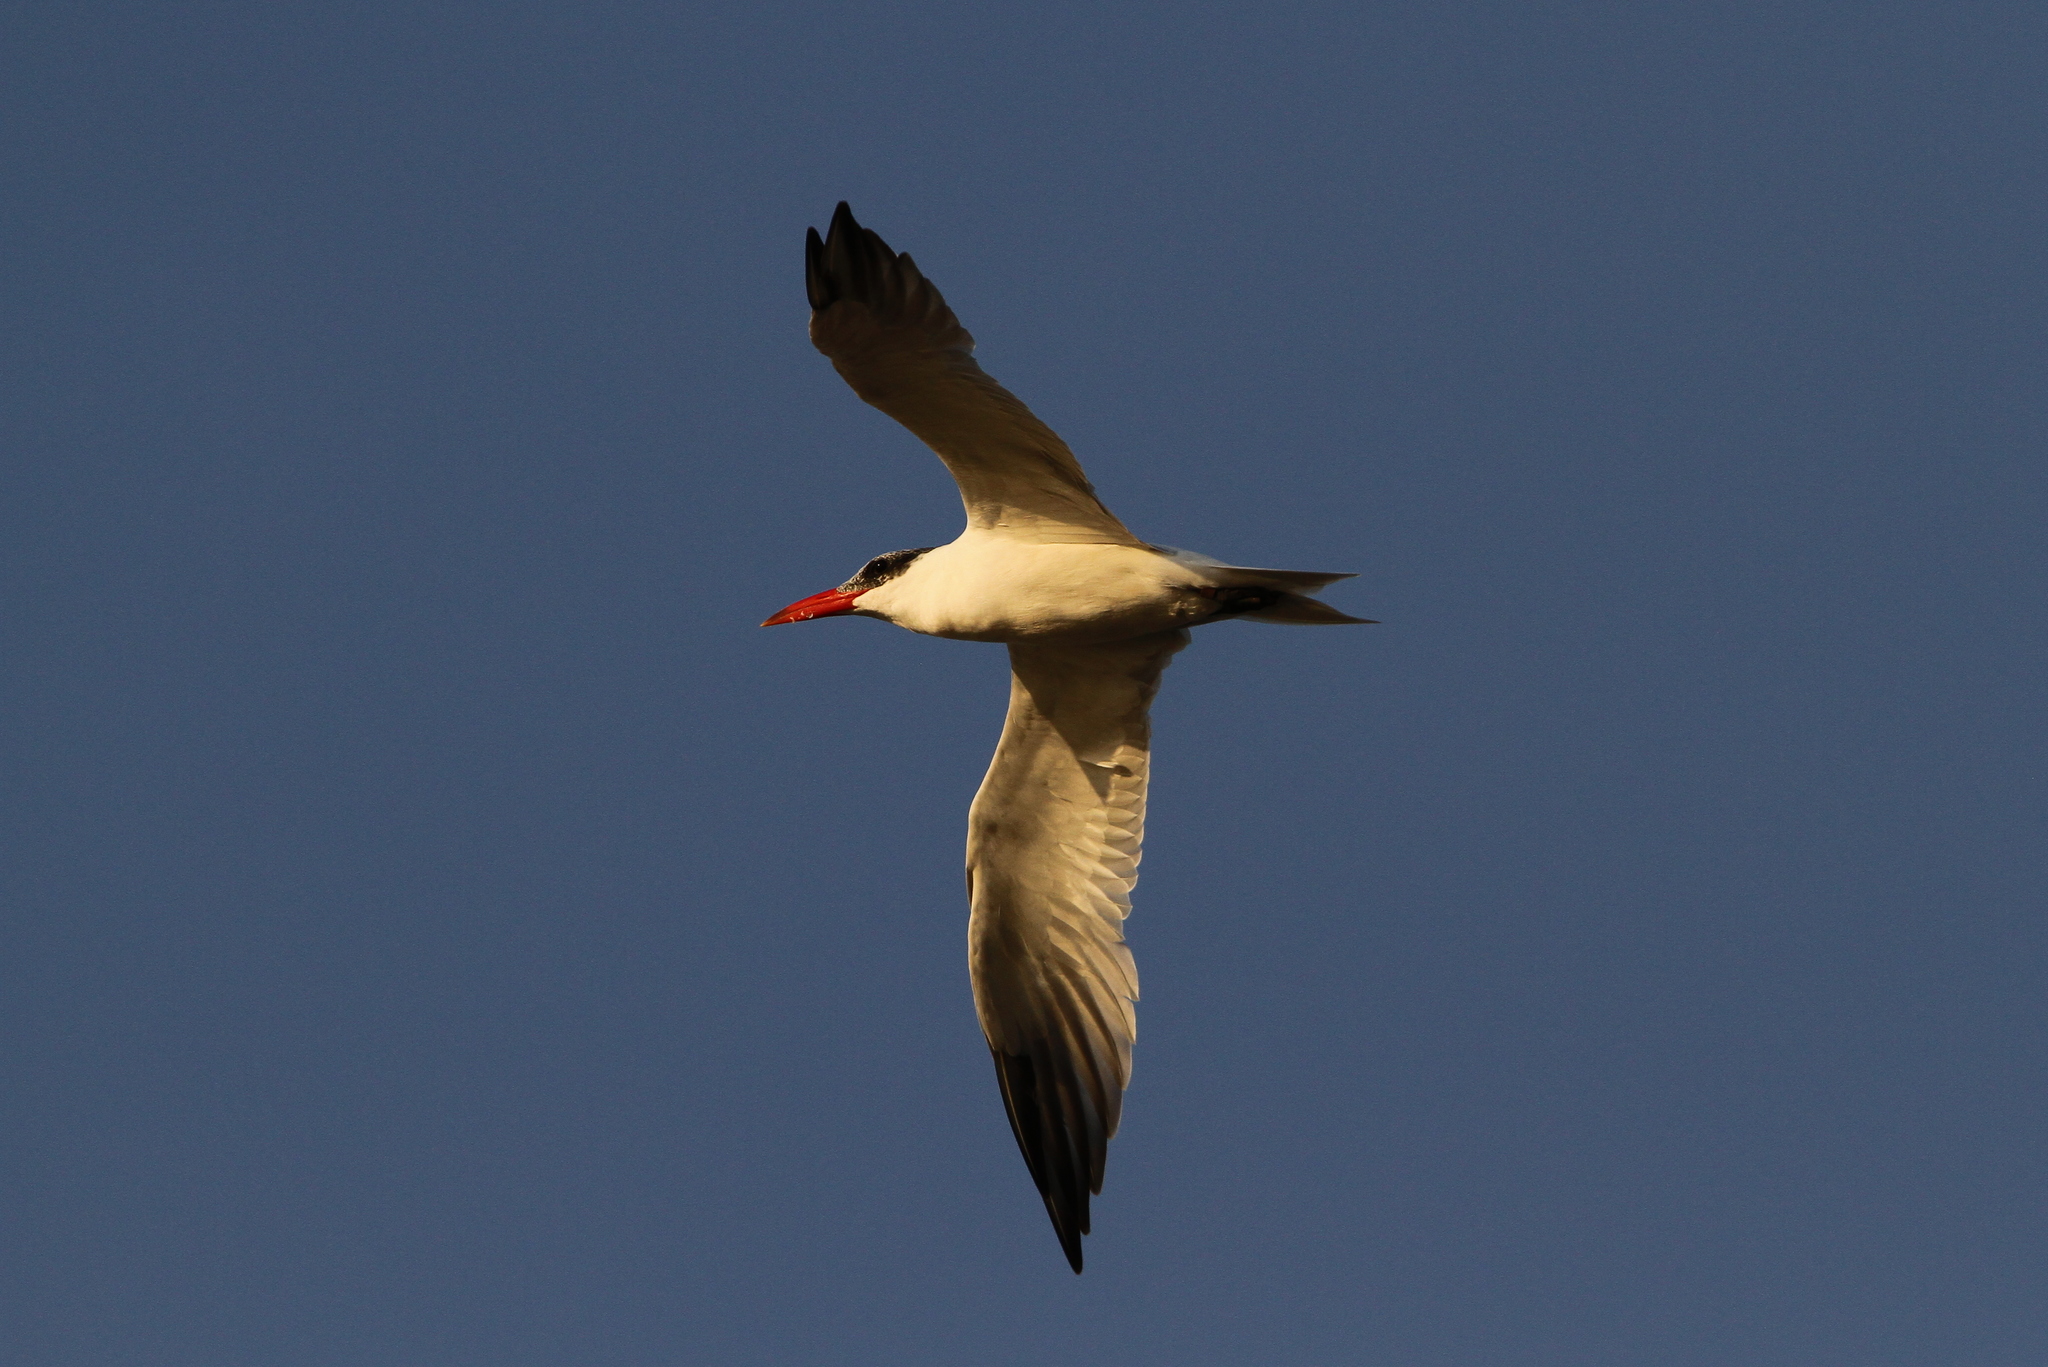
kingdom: Animalia
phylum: Chordata
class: Aves
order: Charadriiformes
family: Laridae
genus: Hydroprogne
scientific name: Hydroprogne caspia
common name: Caspian tern
